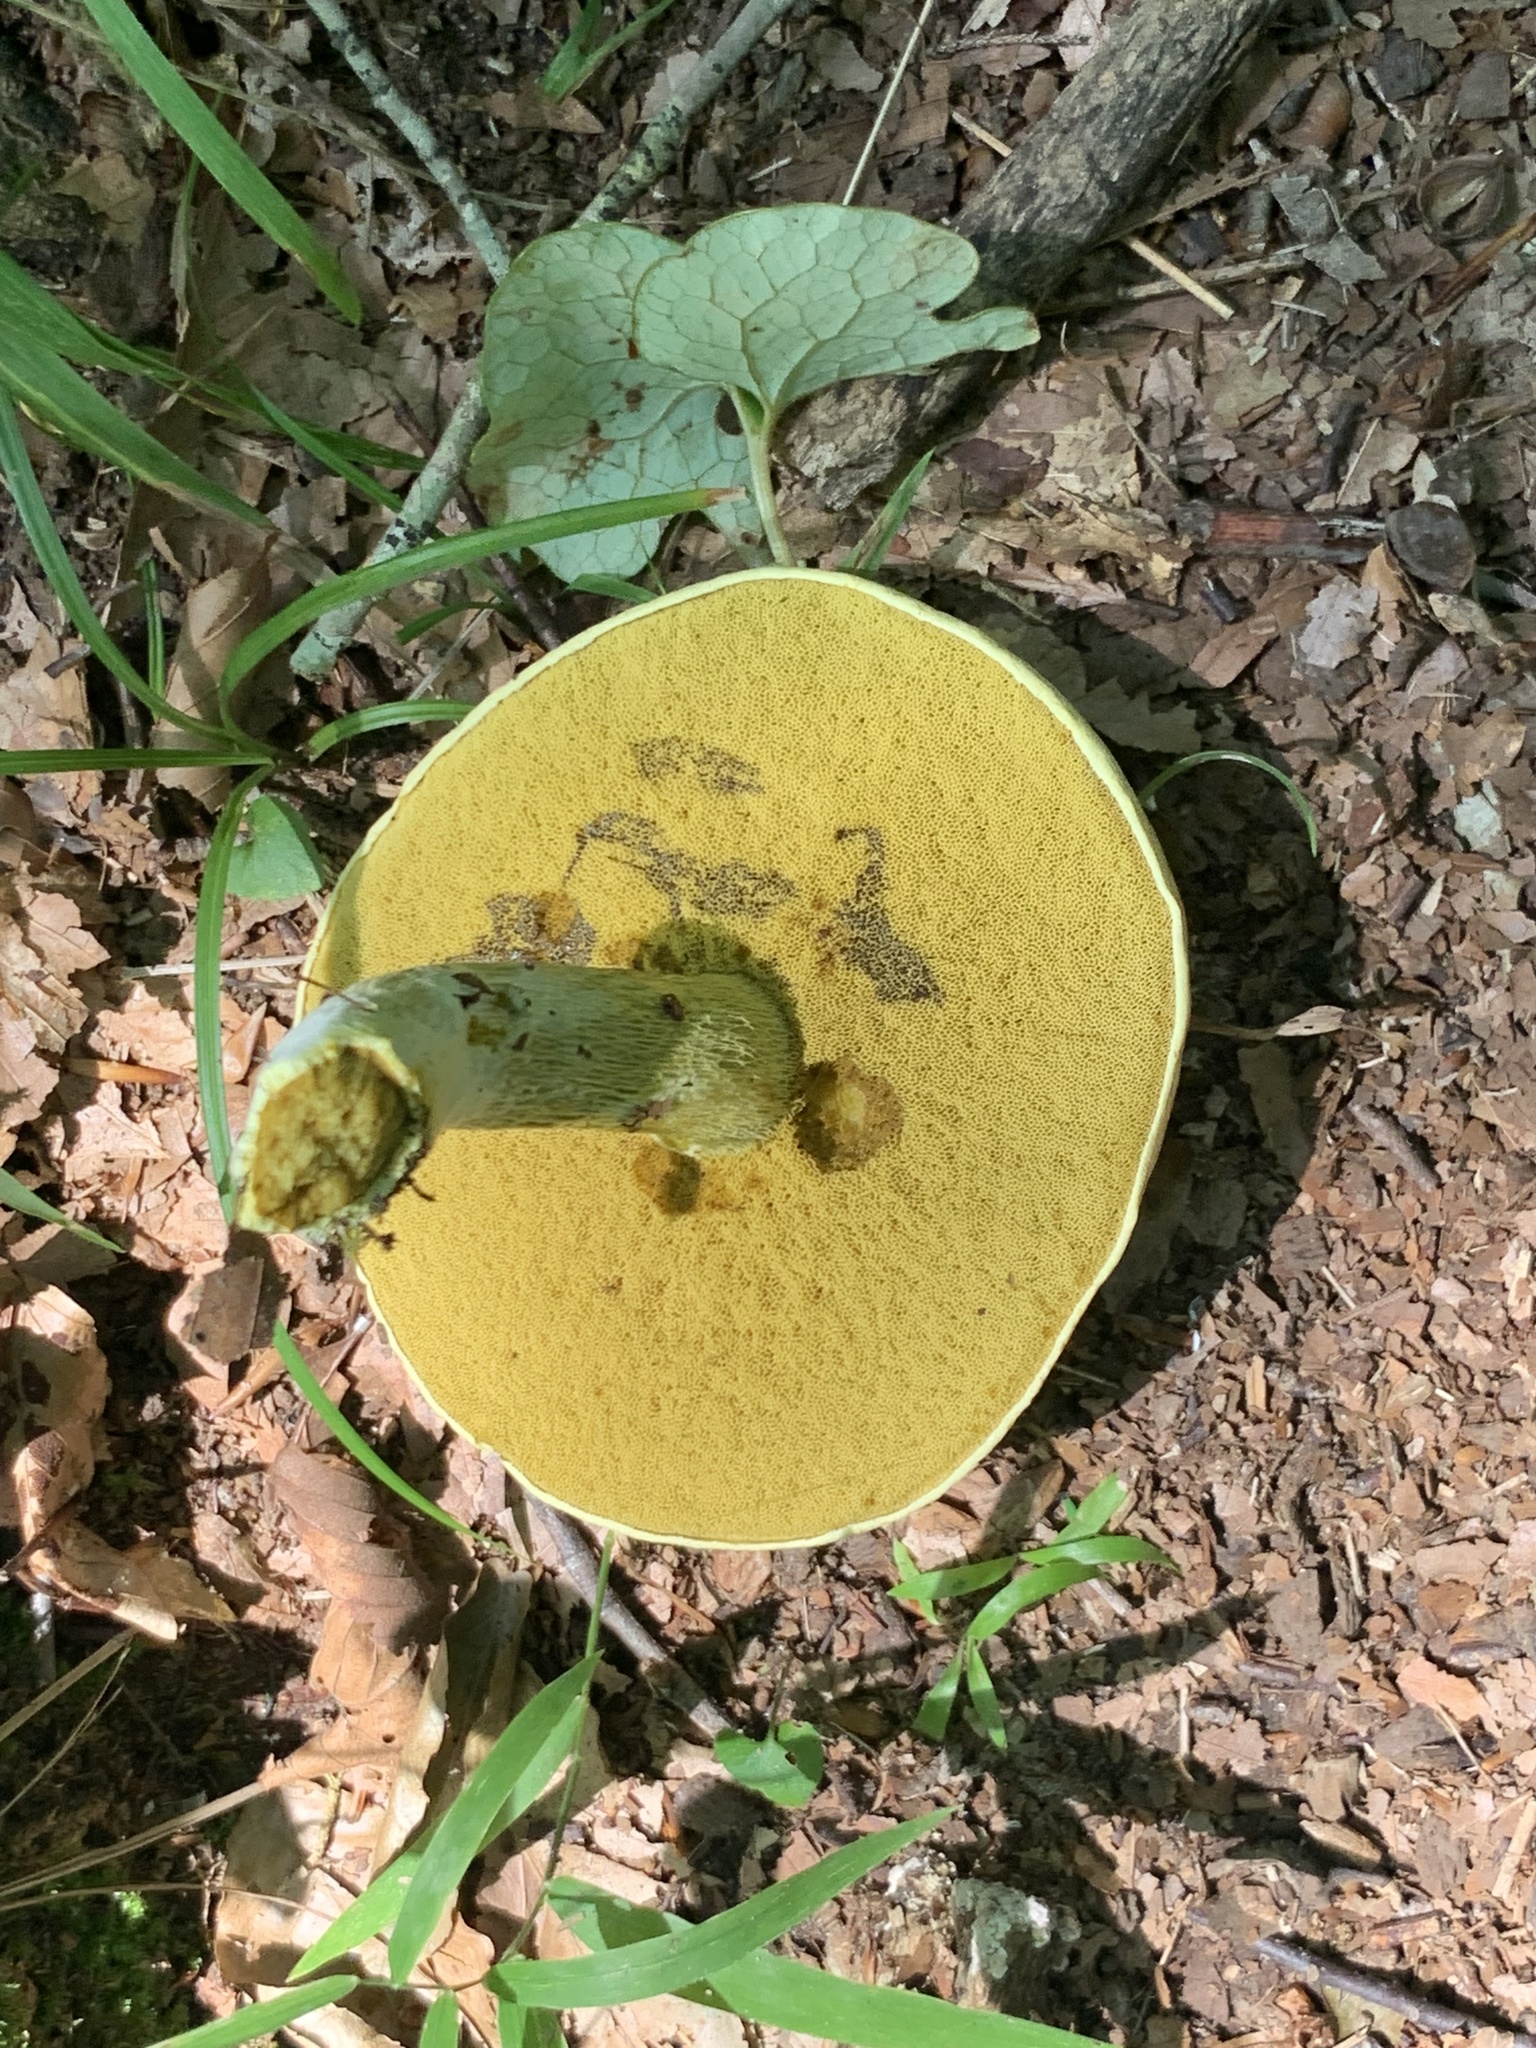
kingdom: Fungi
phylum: Basidiomycota
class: Agaricomycetes
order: Boletales
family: Boletaceae
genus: Retiboletus
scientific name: Retiboletus ornatipes
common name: Ornate-stalked bolete
